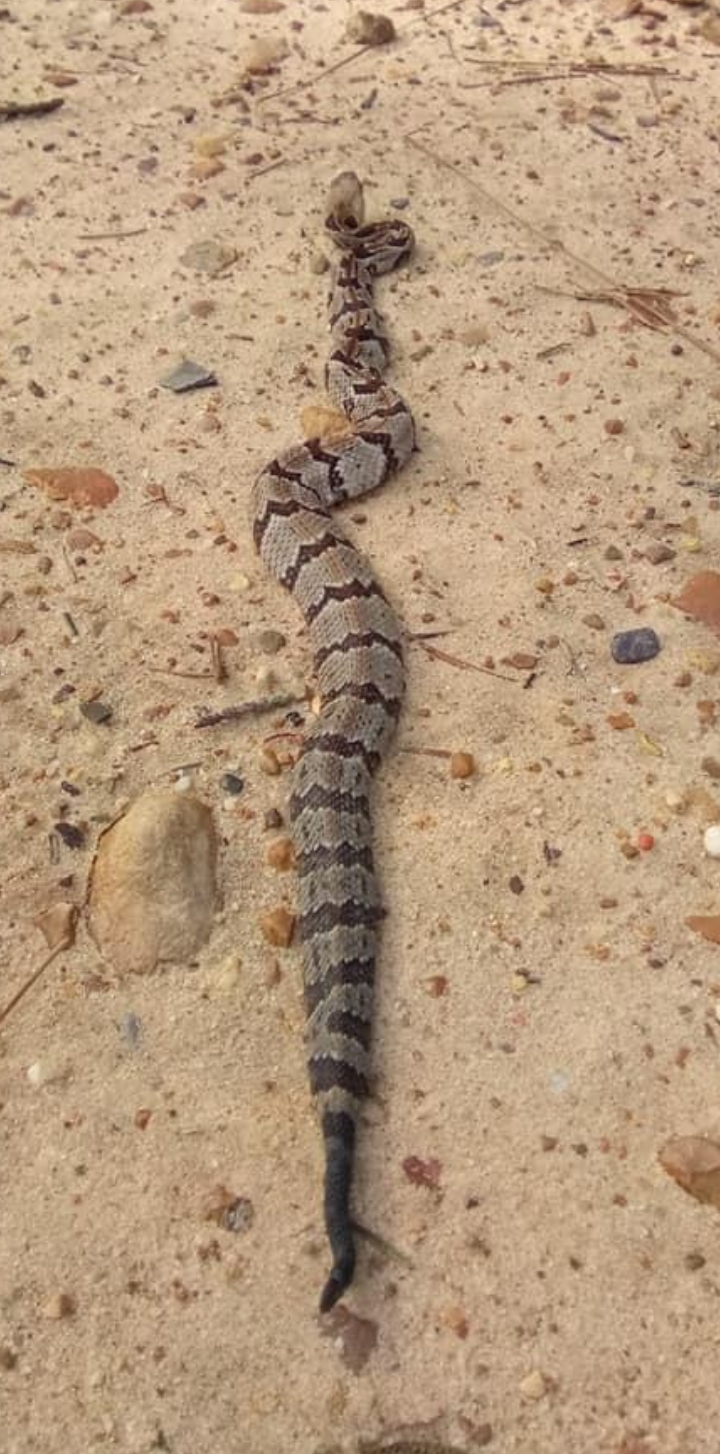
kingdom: Animalia
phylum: Chordata
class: Squamata
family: Viperidae
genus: Crotalus
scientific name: Crotalus horridus
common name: Timber rattlesnake
